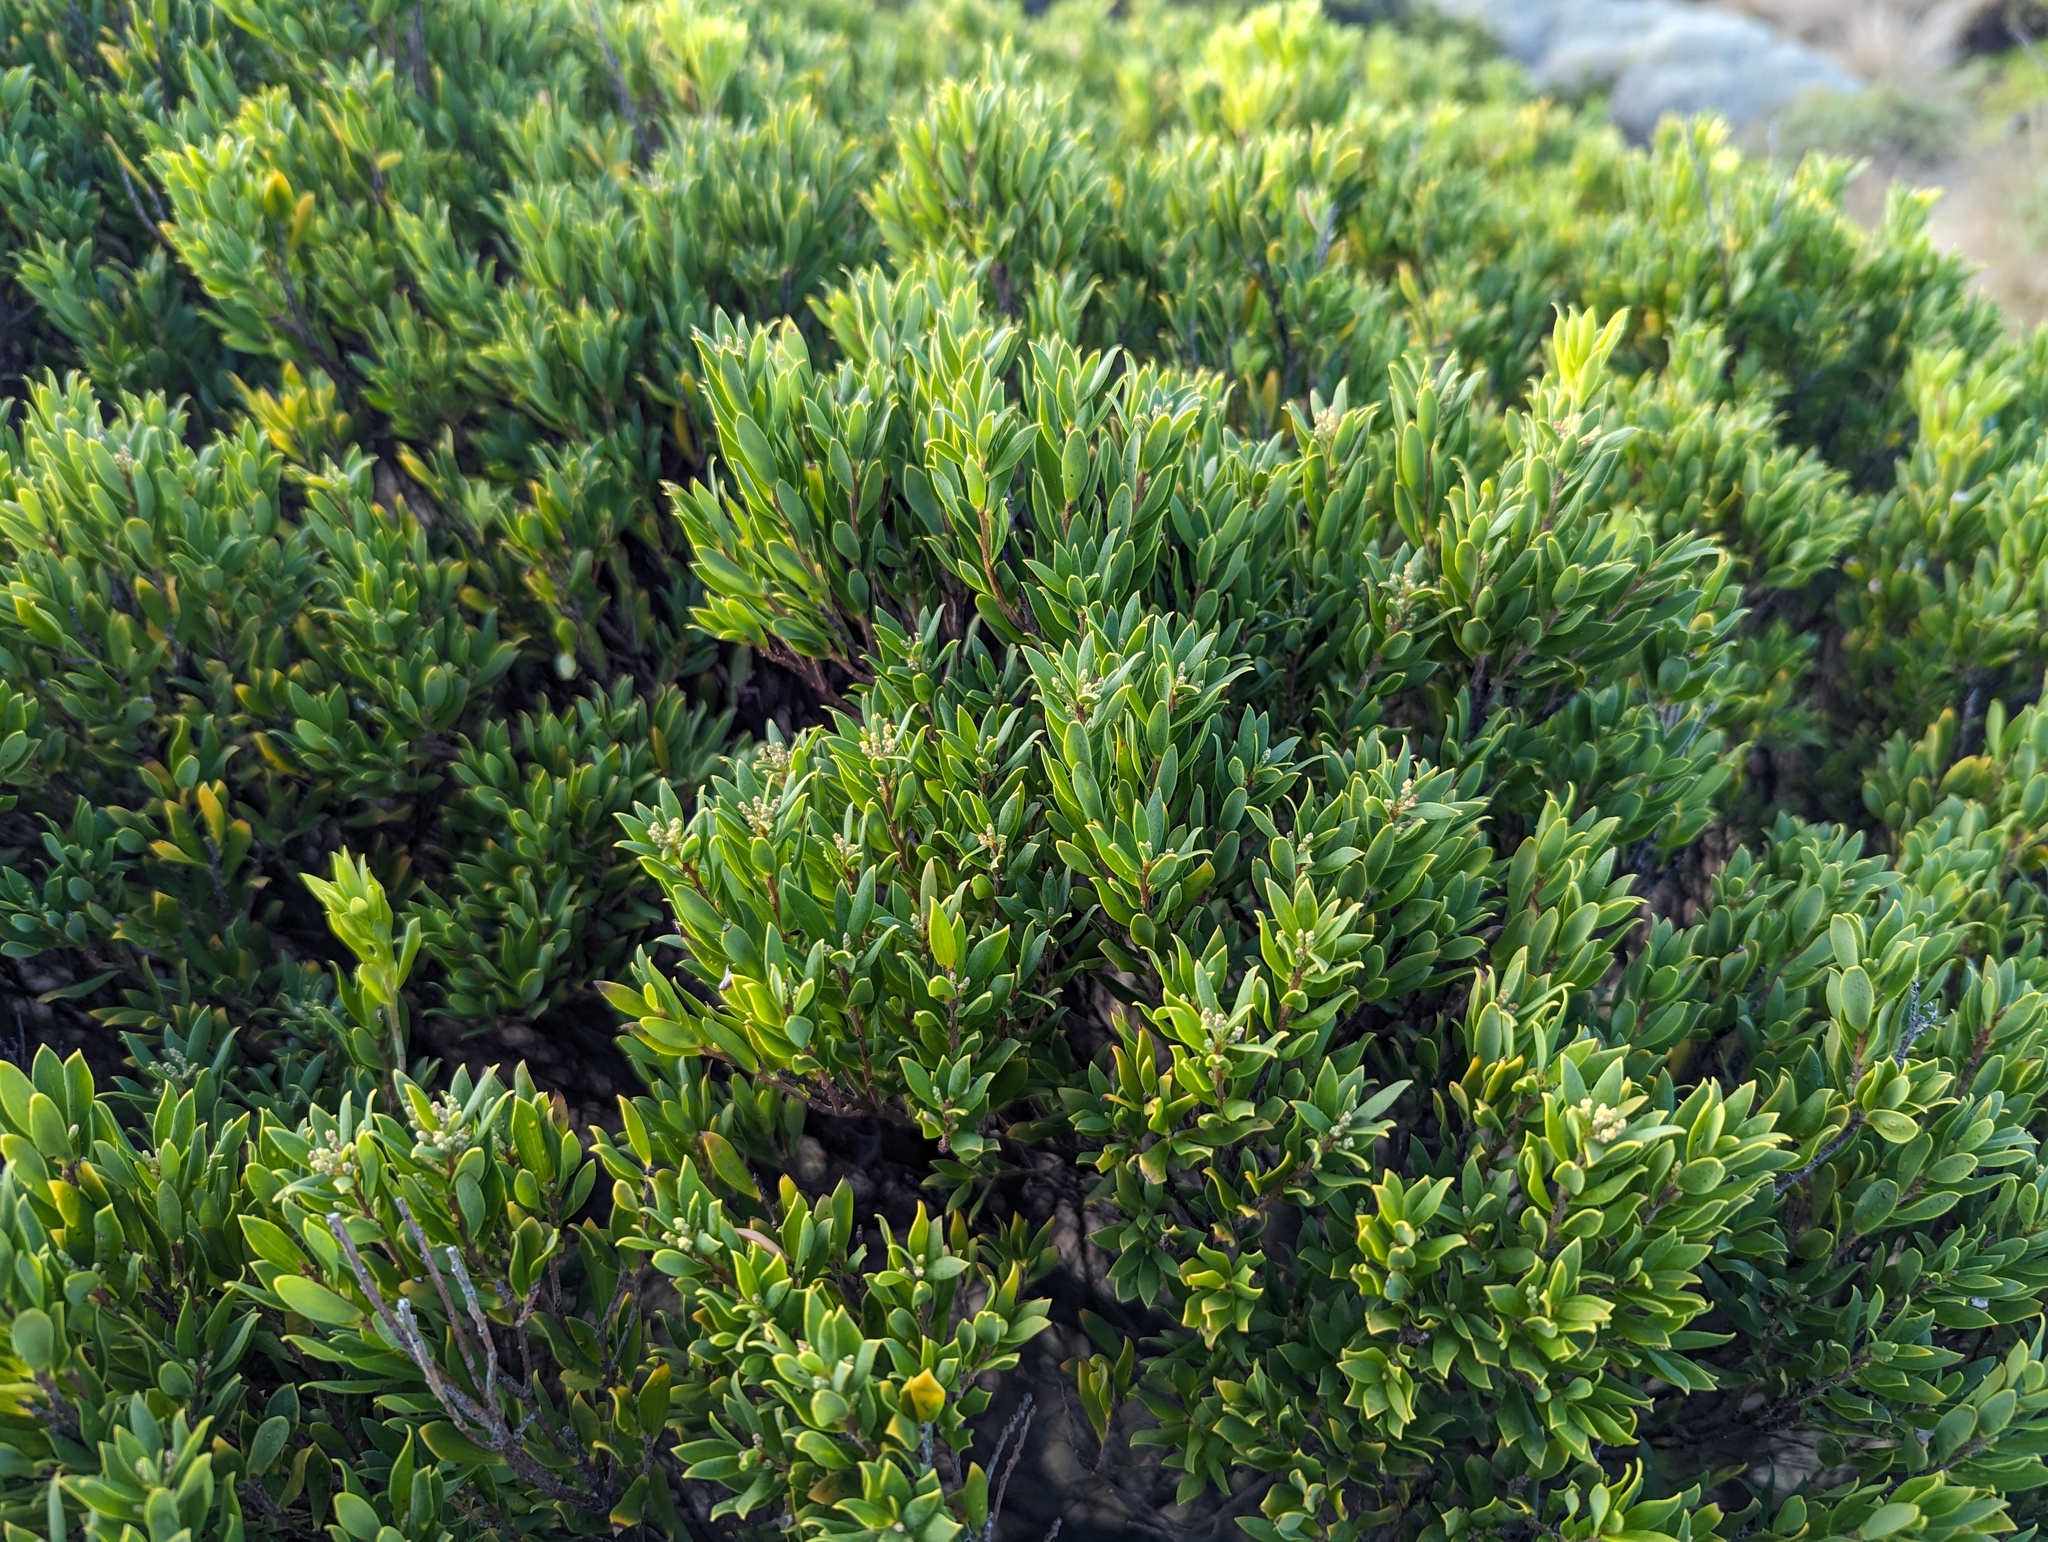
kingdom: Plantae
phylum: Tracheophyta
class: Magnoliopsida
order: Ericales
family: Ericaceae
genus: Leptecophylla
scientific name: Leptecophylla parvifolia
